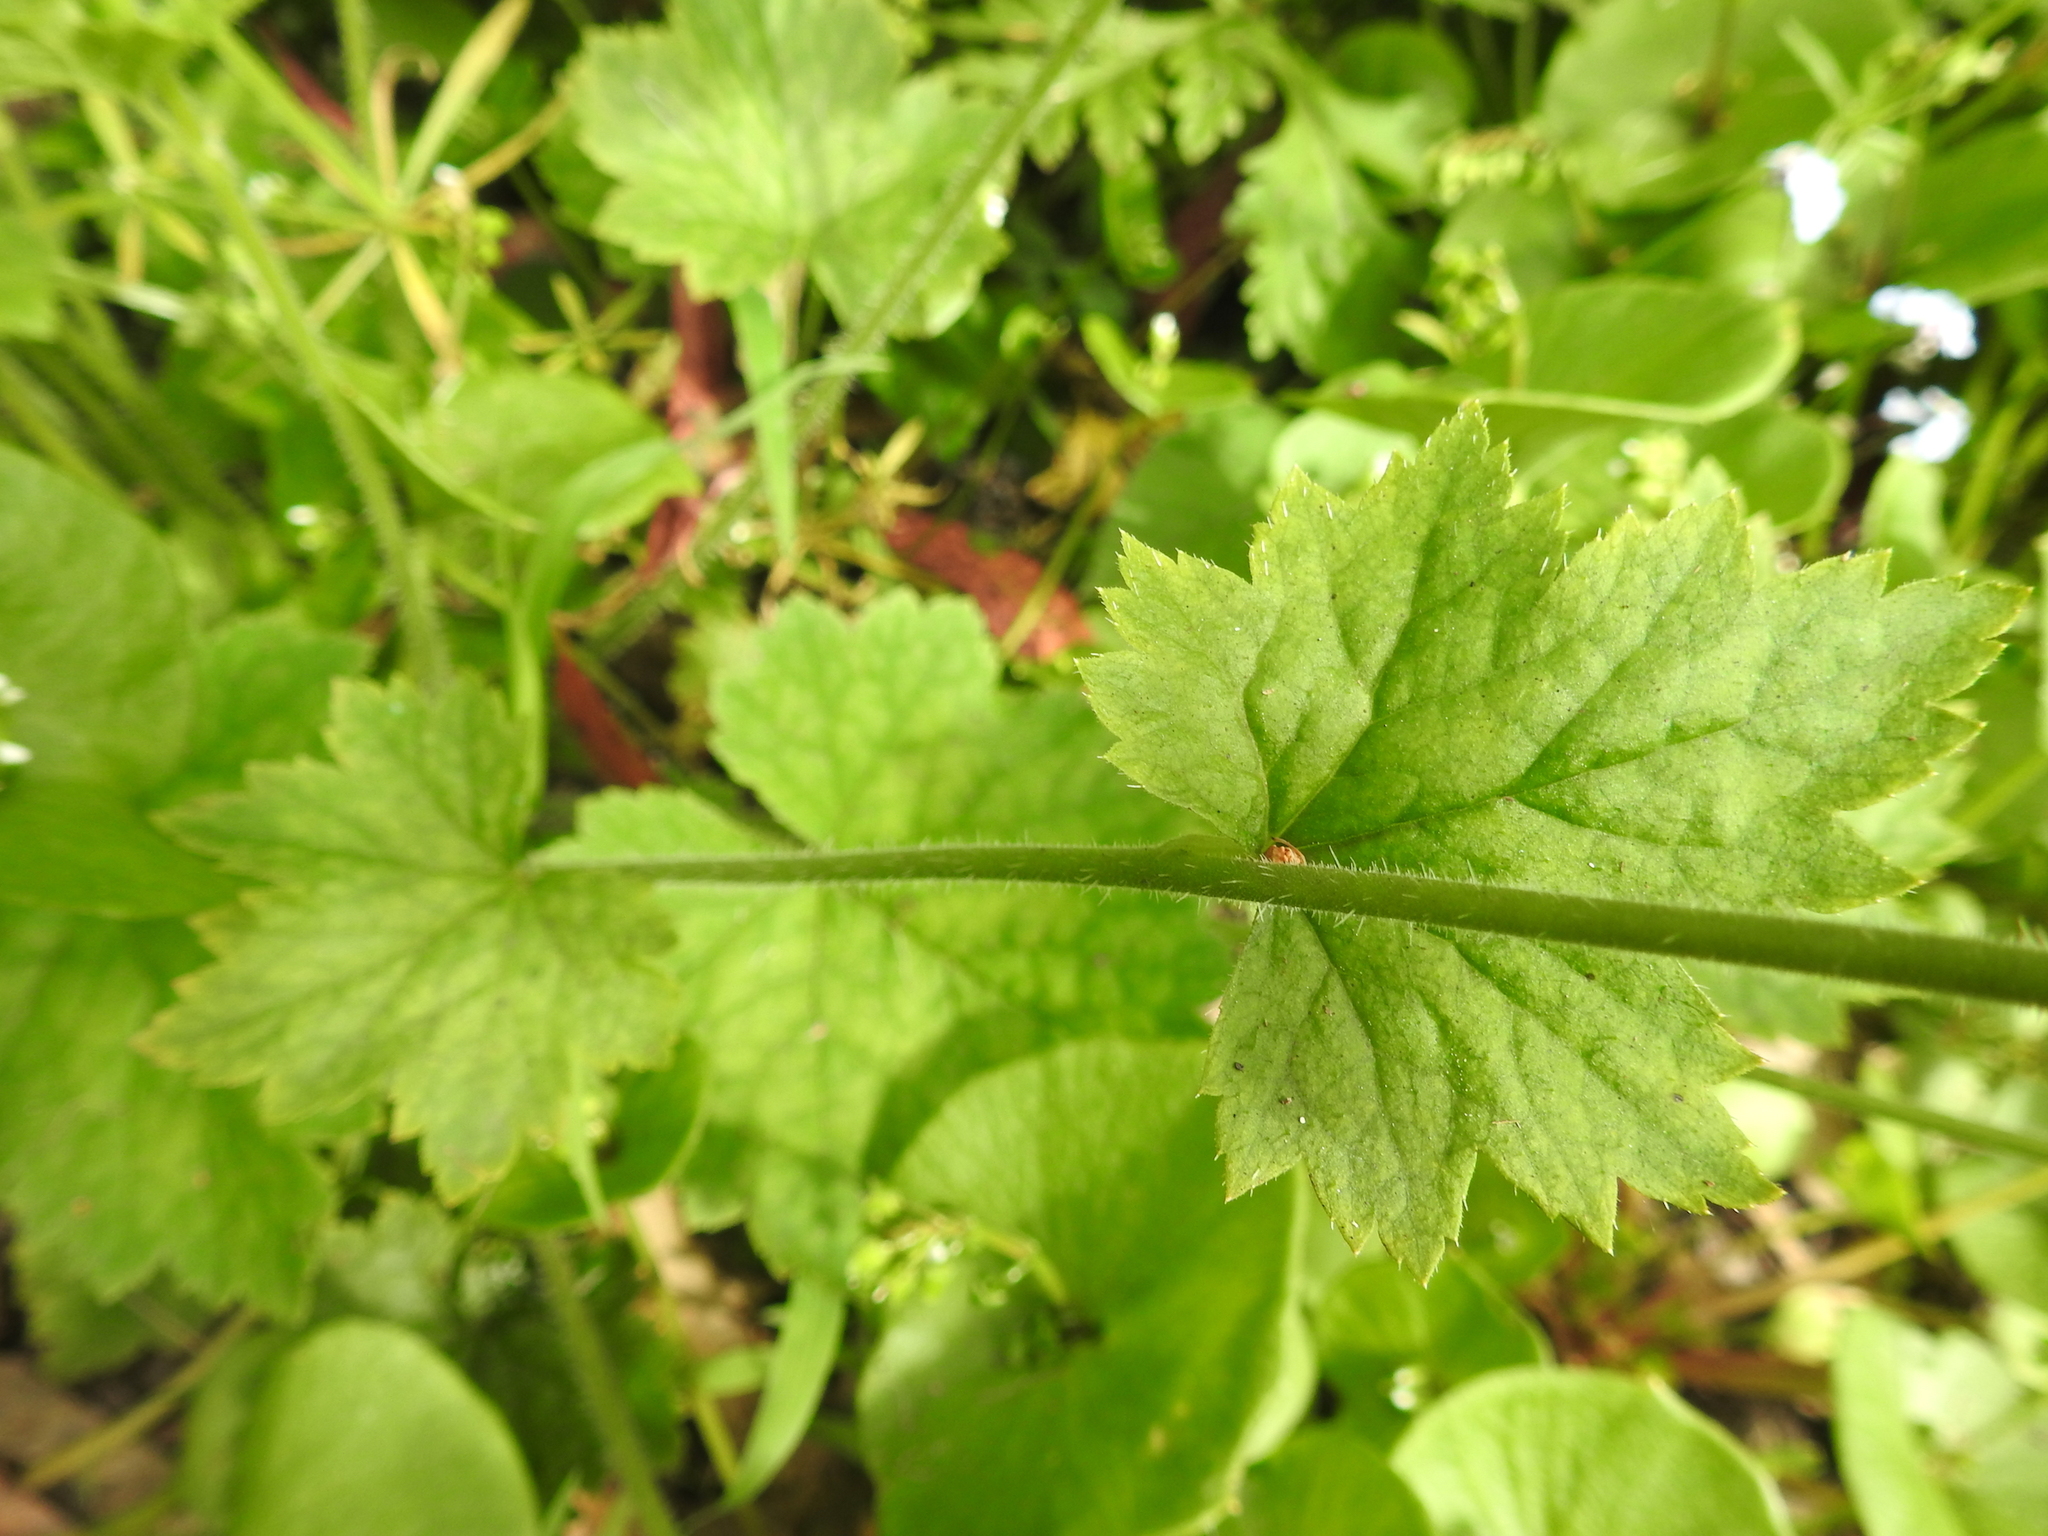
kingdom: Plantae
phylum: Tracheophyta
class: Magnoliopsida
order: Saxifragales
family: Saxifragaceae
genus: Tellima
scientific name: Tellima grandiflora
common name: Fringecups
